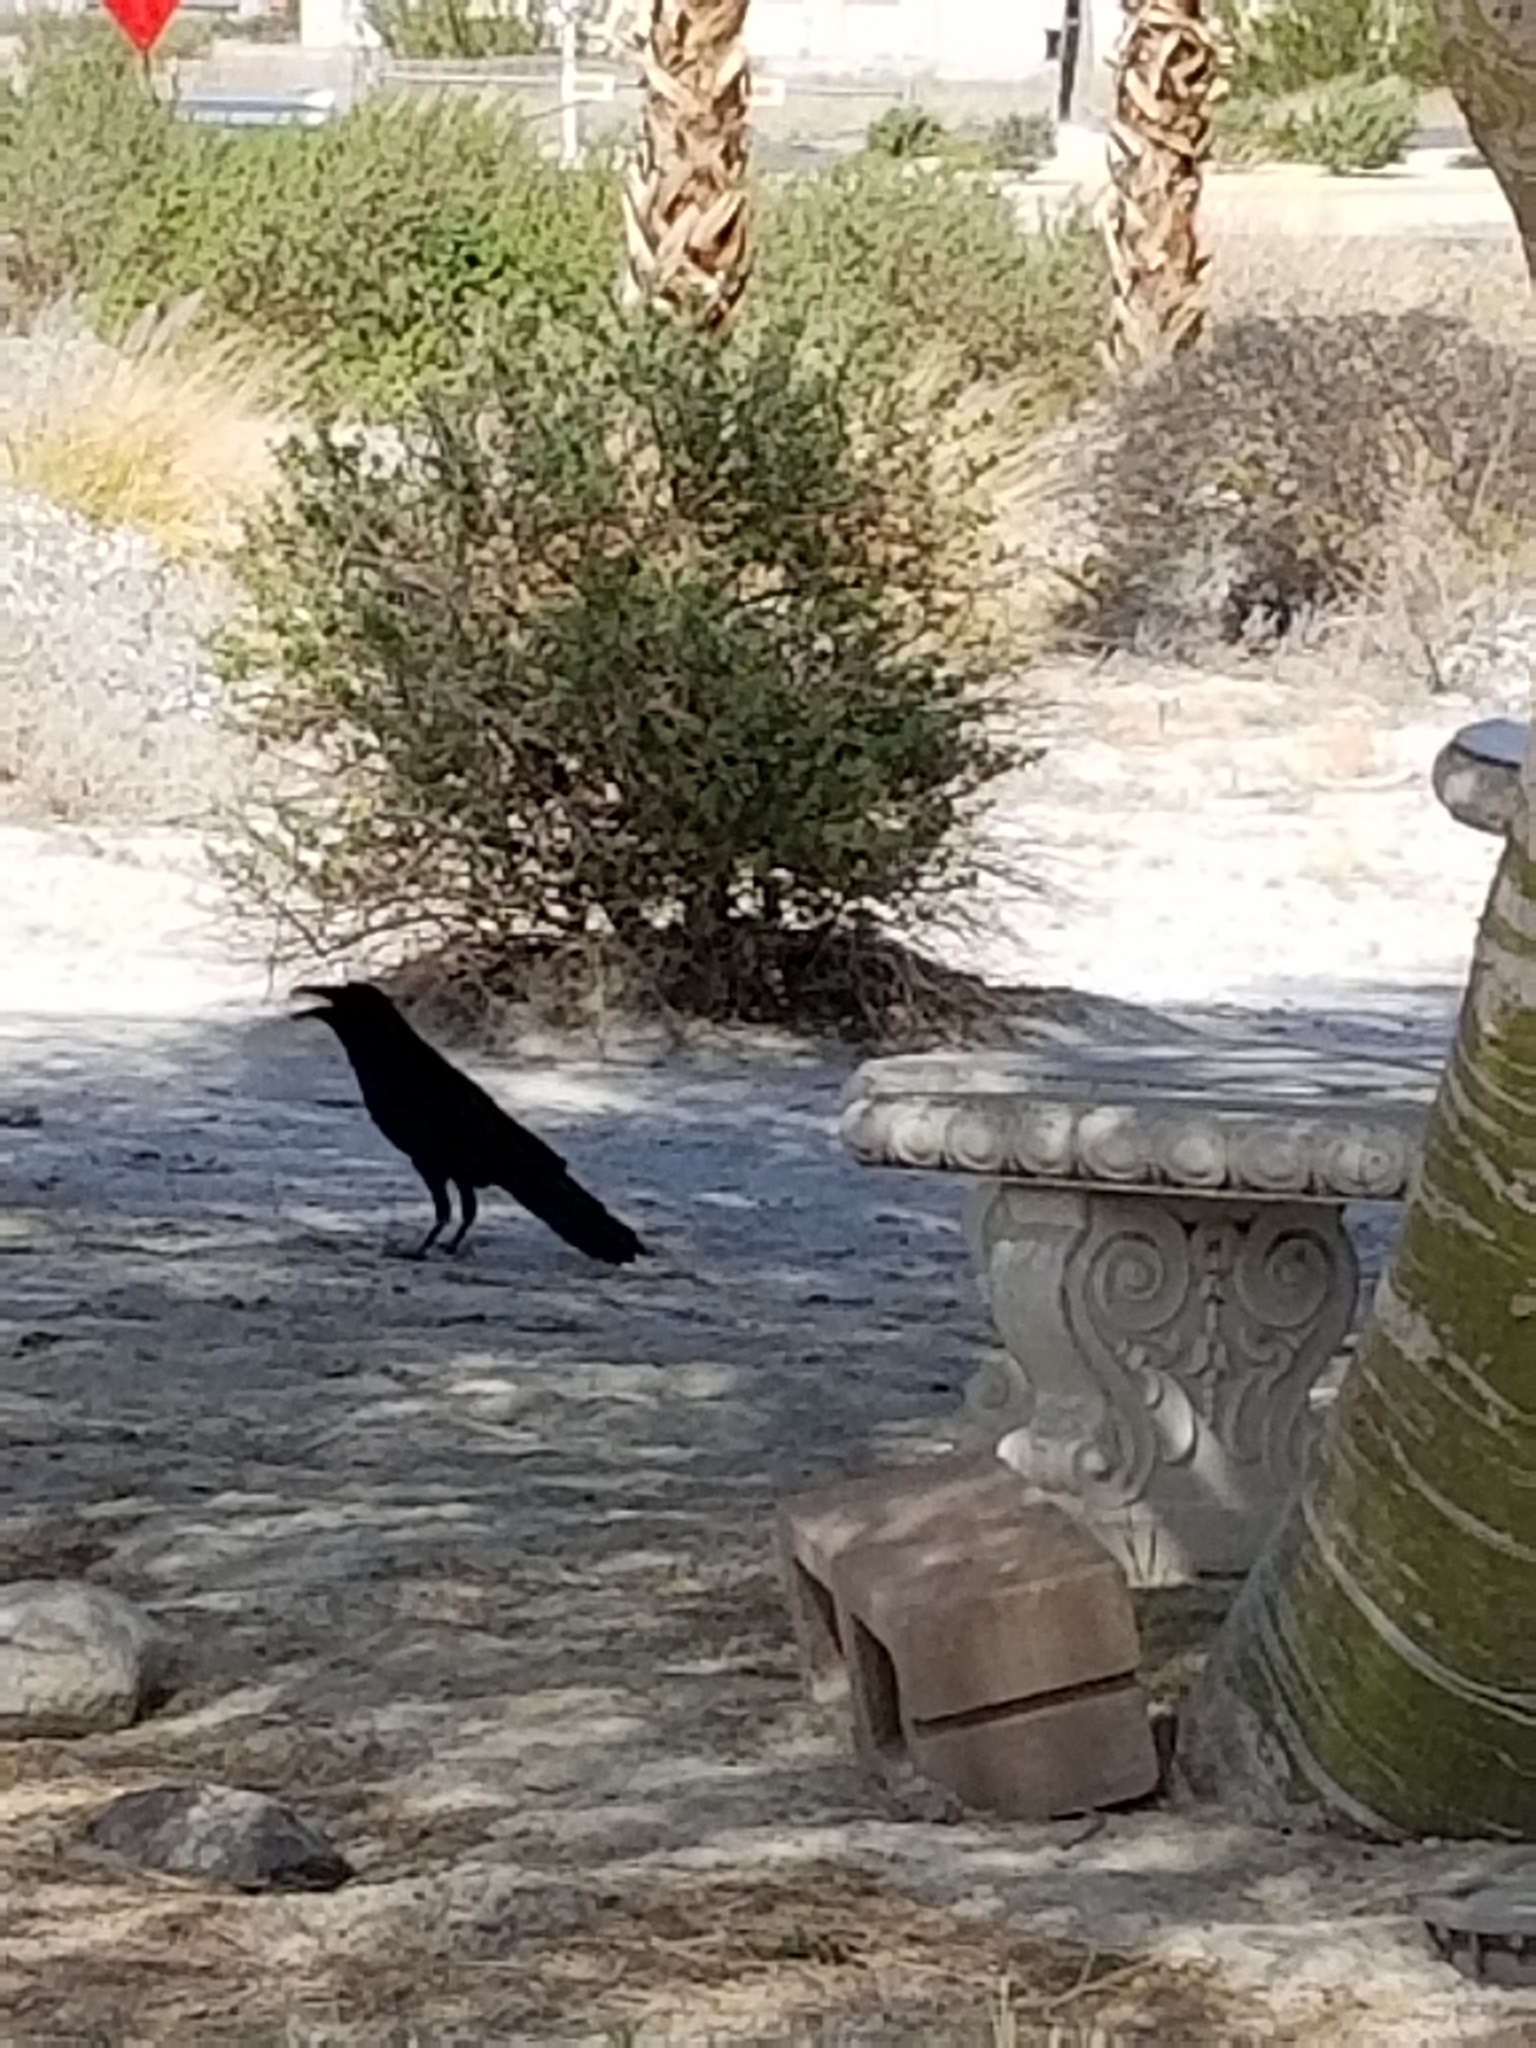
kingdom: Animalia
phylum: Chordata
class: Aves
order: Passeriformes
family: Corvidae
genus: Corvus
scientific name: Corvus corax
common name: Common raven
